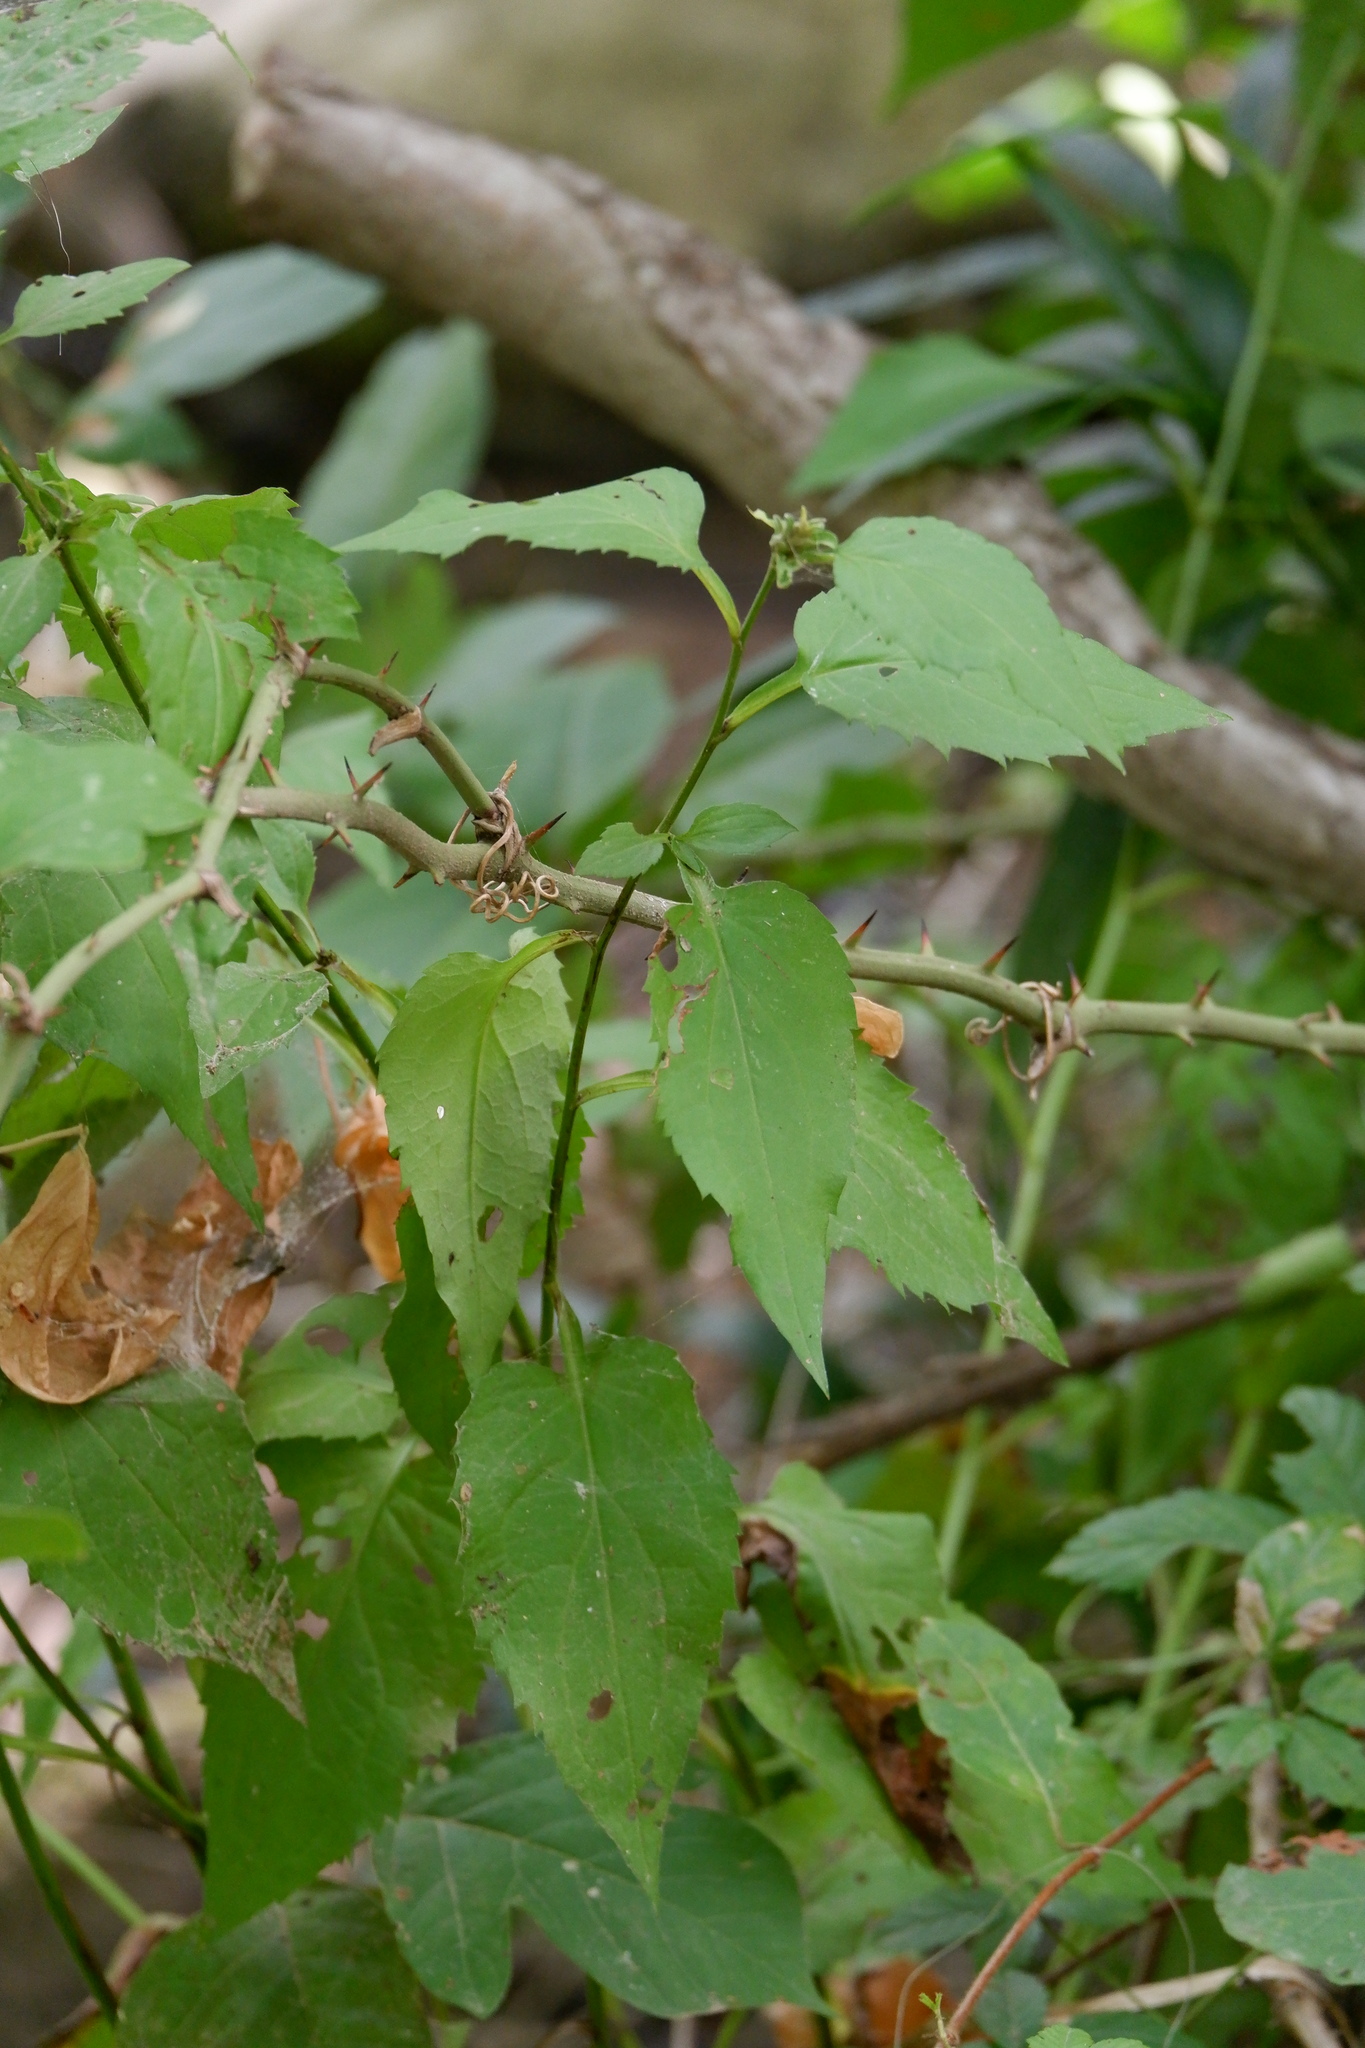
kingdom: Plantae
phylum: Tracheophyta
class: Magnoliopsida
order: Asterales
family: Asteraceae
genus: Symphyotrichum
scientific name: Symphyotrichum drummondii
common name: Drummond's aster
